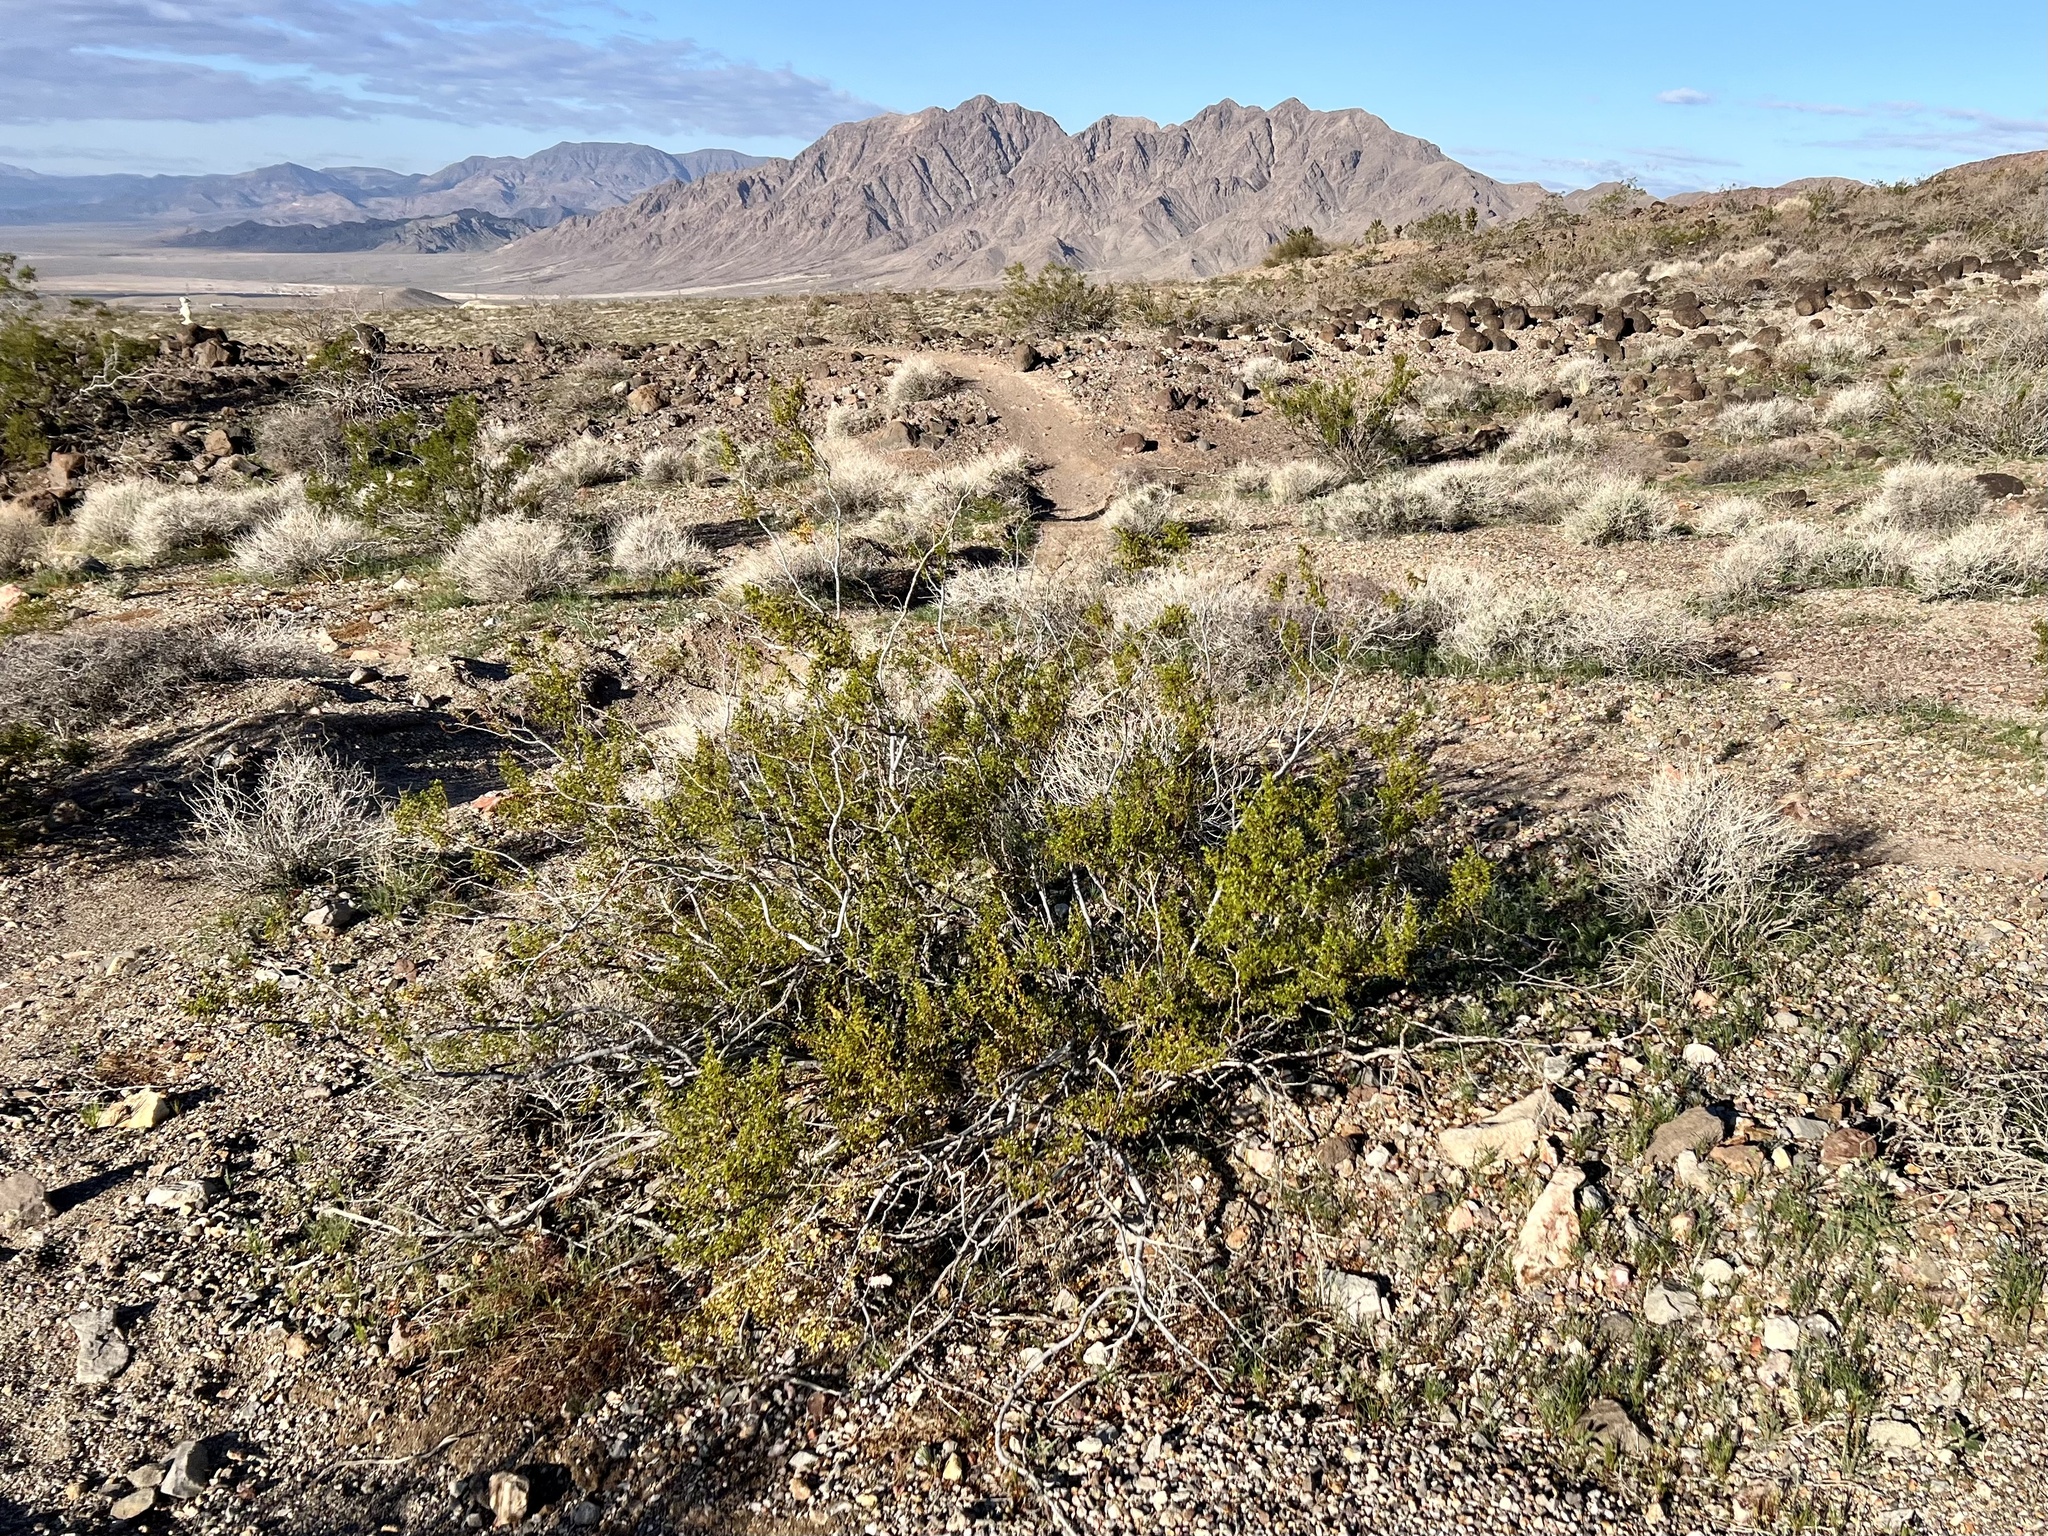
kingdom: Plantae
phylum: Tracheophyta
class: Magnoliopsida
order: Zygophyllales
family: Zygophyllaceae
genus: Larrea
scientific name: Larrea tridentata
